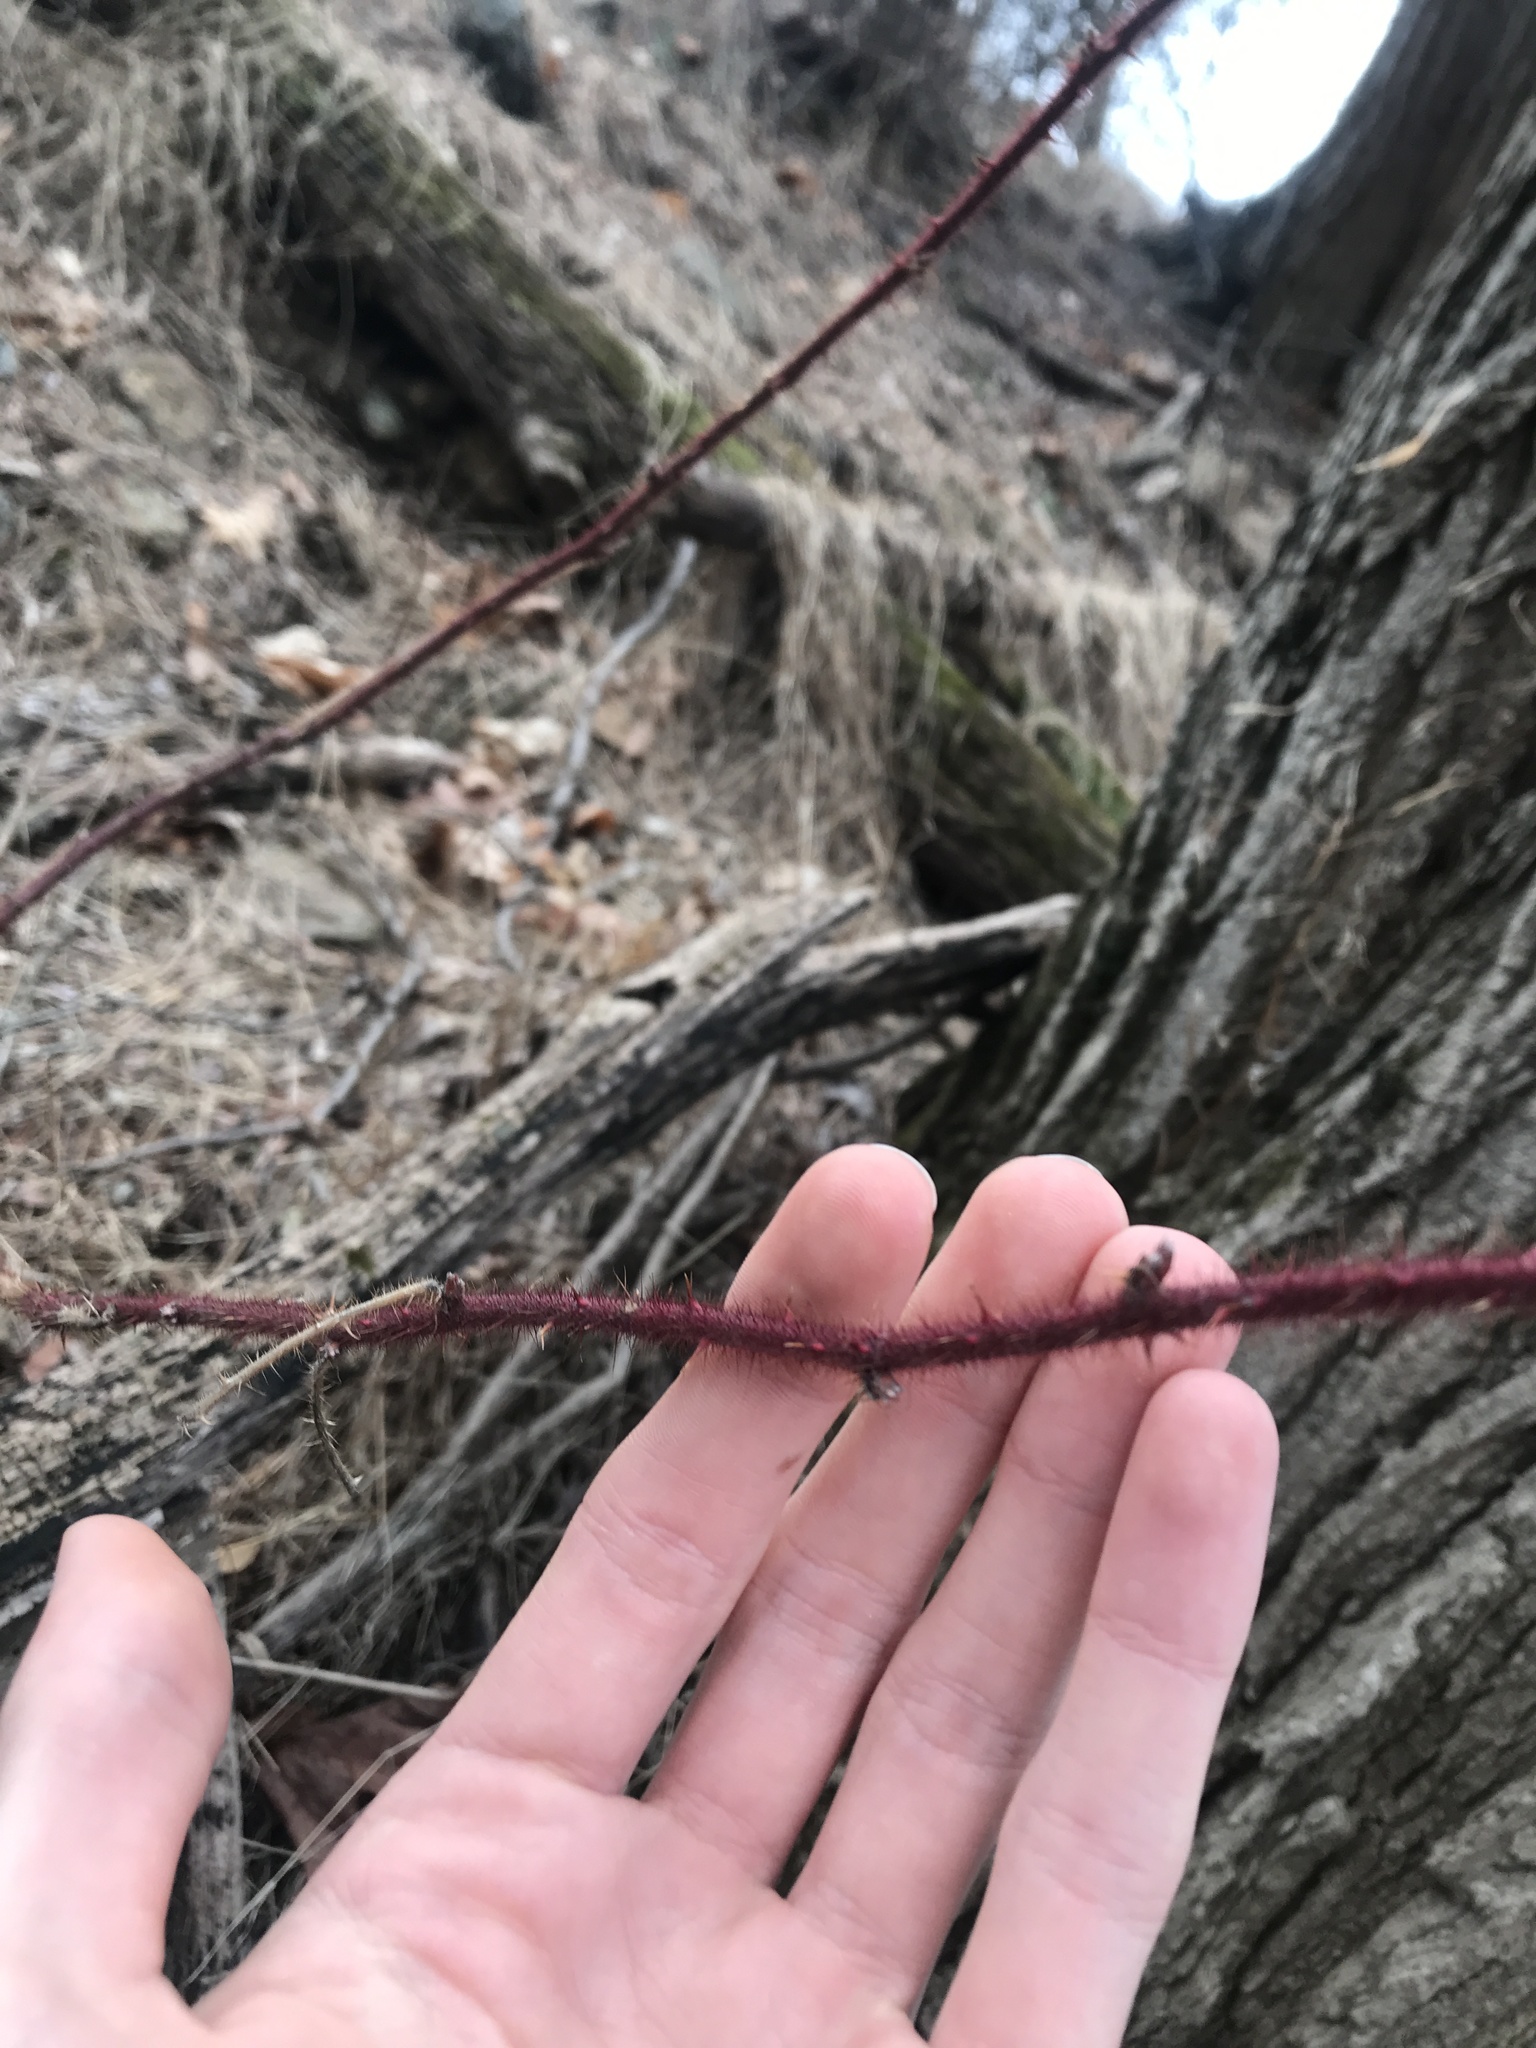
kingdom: Plantae
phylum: Tracheophyta
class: Magnoliopsida
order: Rosales
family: Rosaceae
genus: Rubus
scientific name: Rubus phoenicolasius
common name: Japanese wineberry
